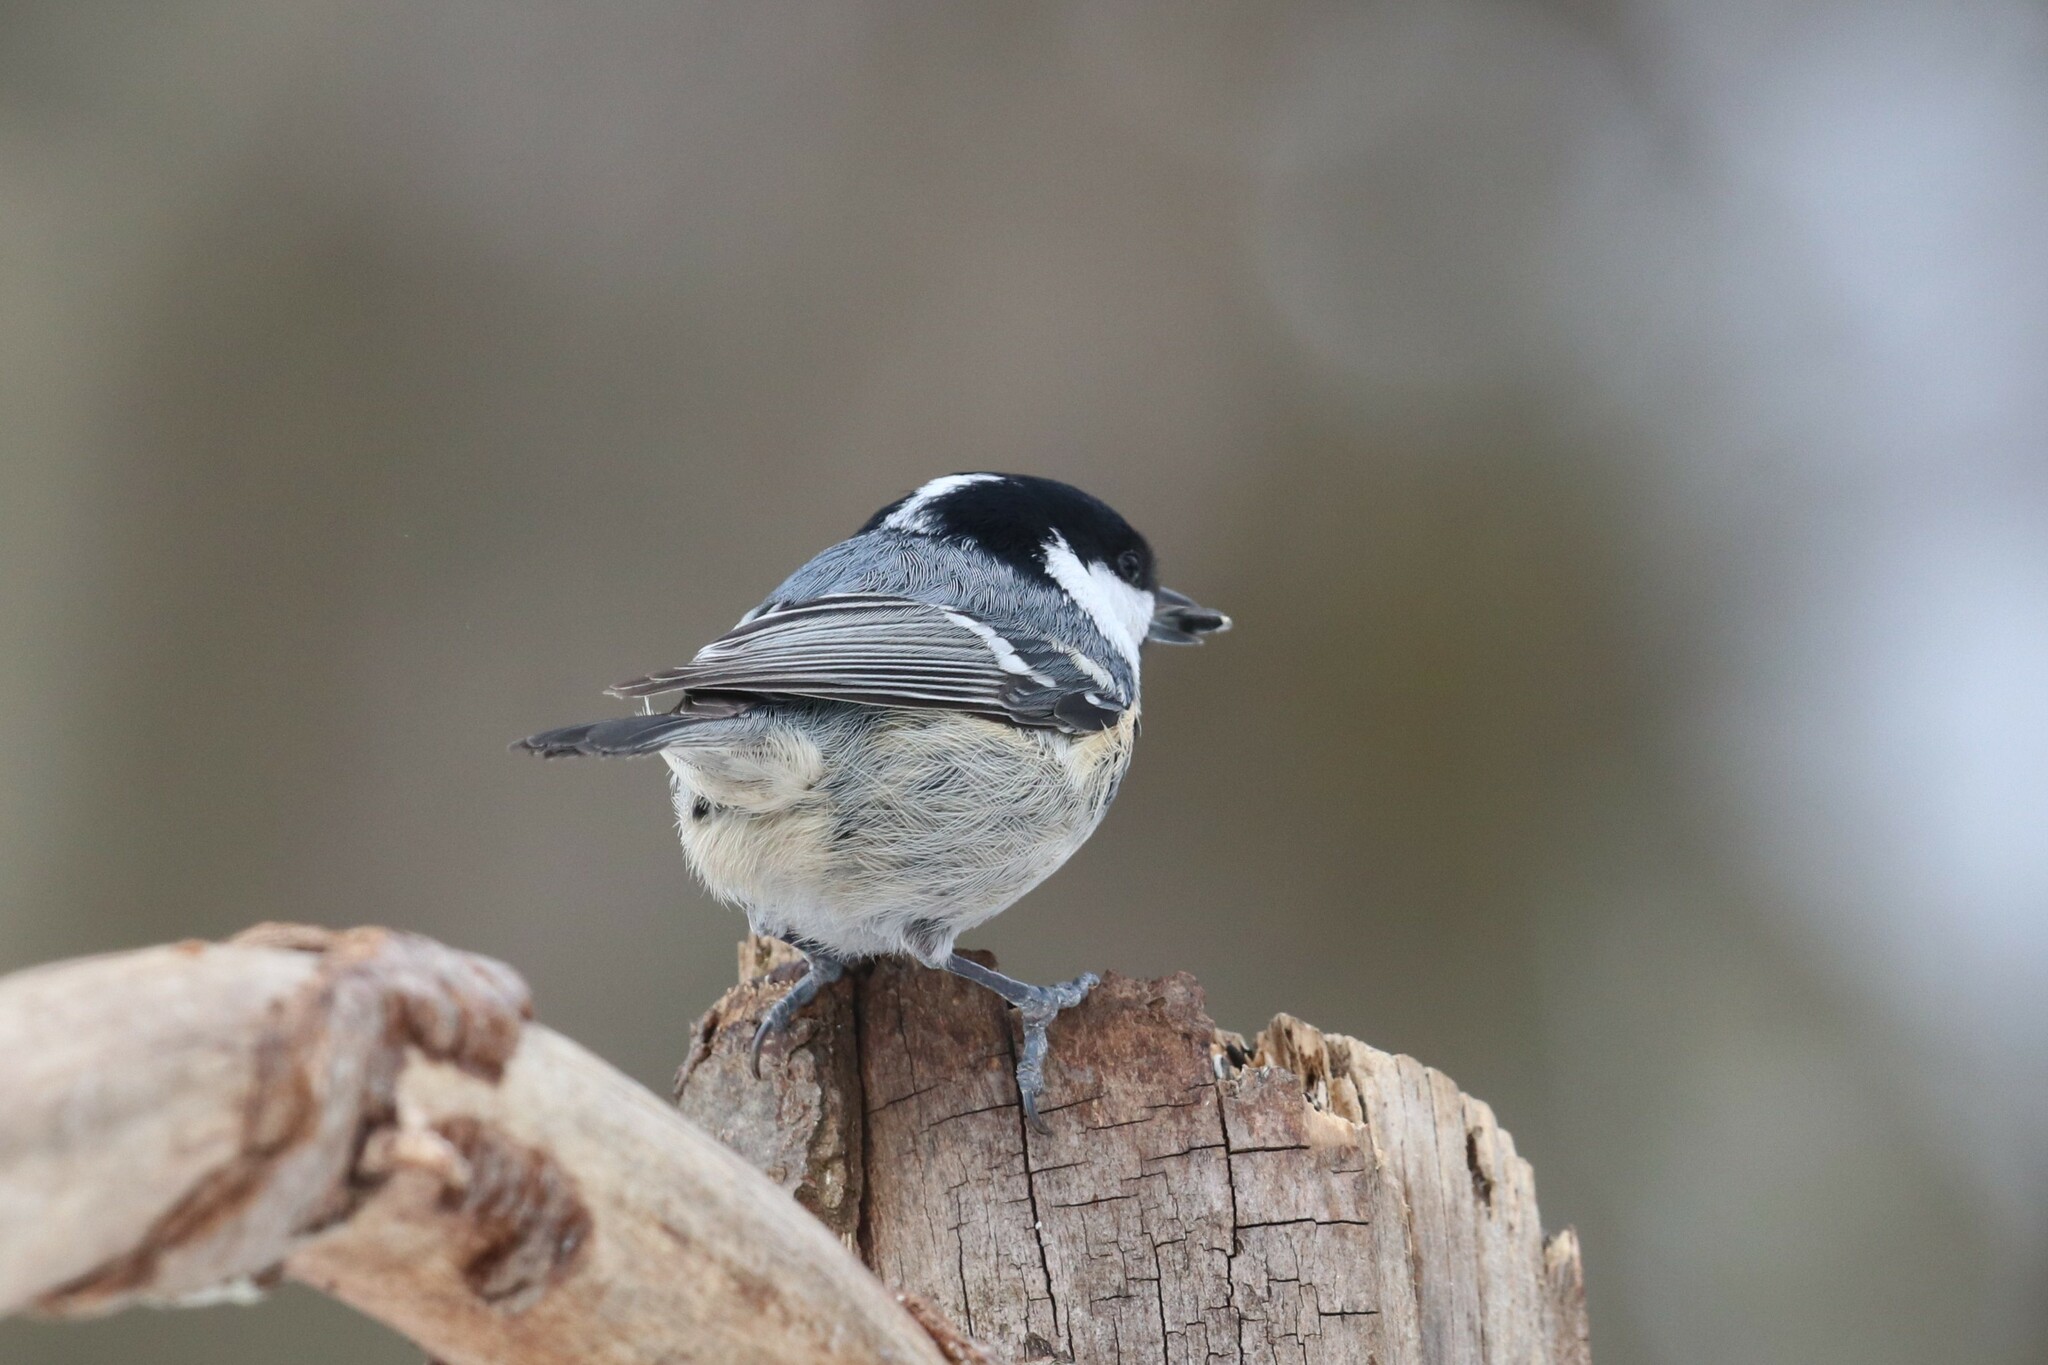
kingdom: Animalia
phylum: Chordata
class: Aves
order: Passeriformes
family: Paridae
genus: Periparus
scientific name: Periparus ater
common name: Coal tit
